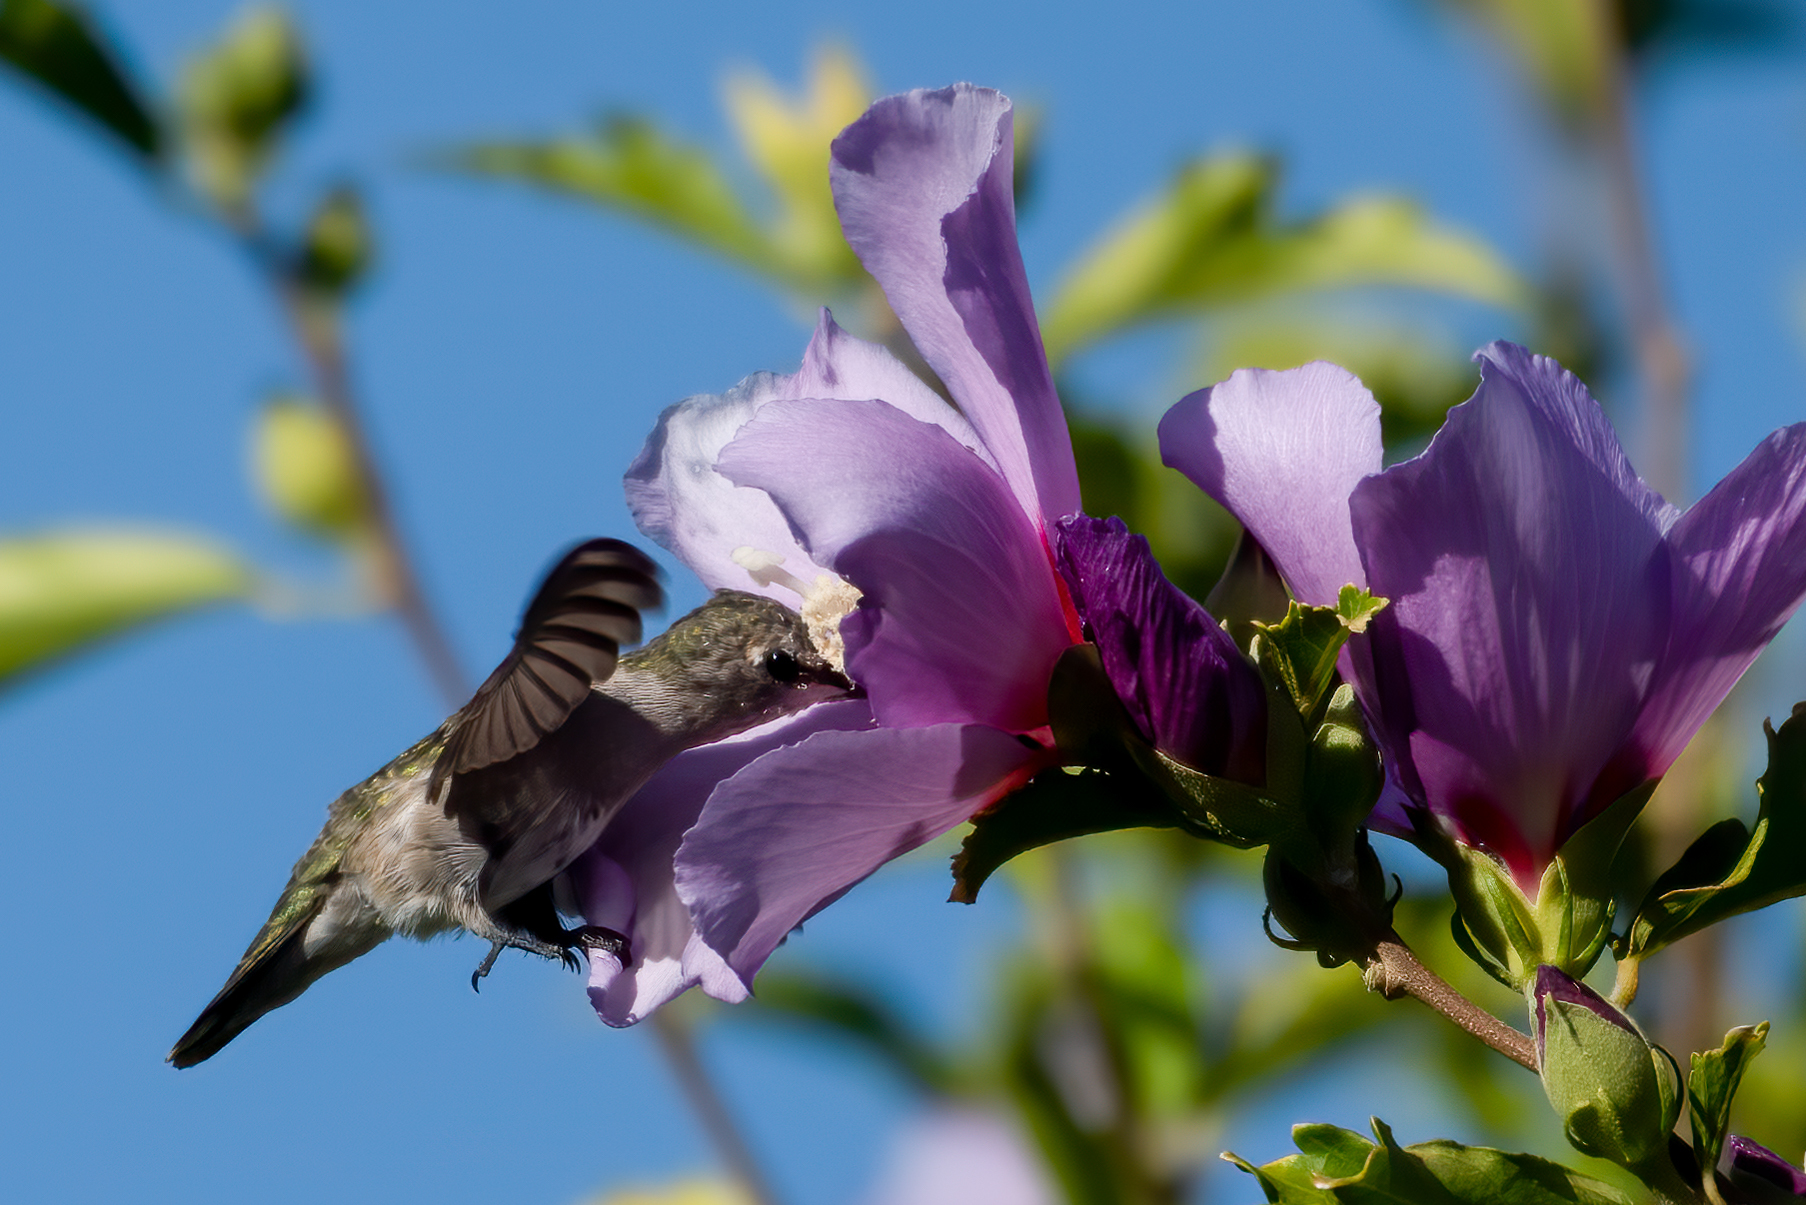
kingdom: Animalia
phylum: Chordata
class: Aves
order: Apodiformes
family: Trochilidae
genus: Calypte
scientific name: Calypte anna
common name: Anna's hummingbird
